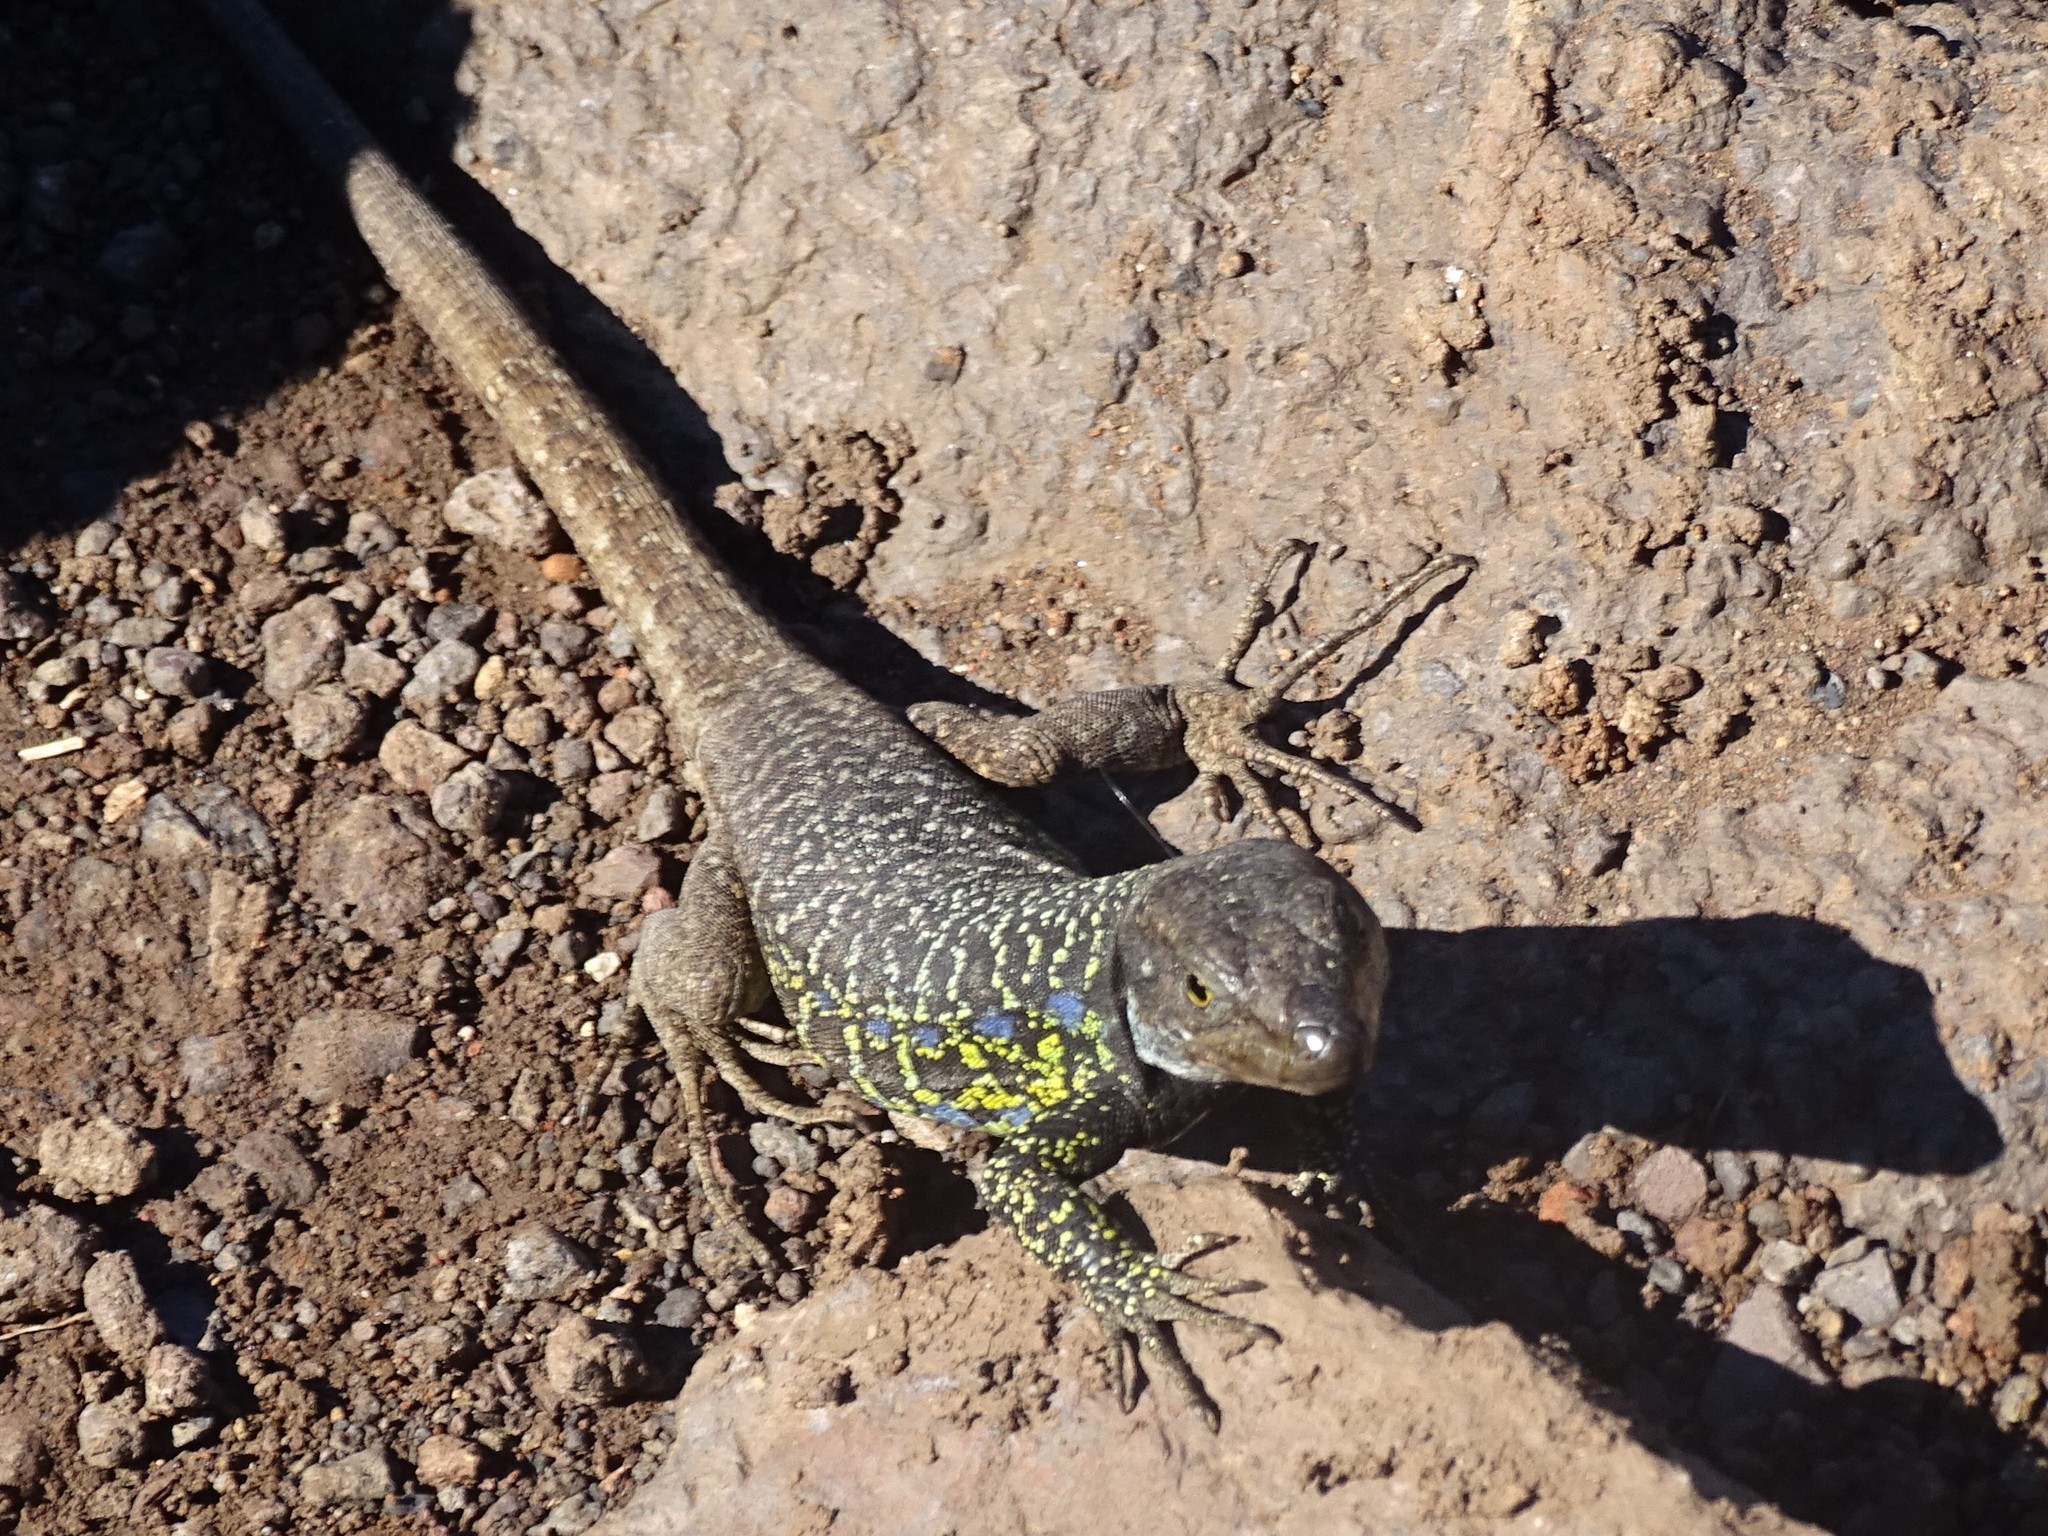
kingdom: Animalia
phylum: Chordata
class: Squamata
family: Lacertidae
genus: Gallotia
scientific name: Gallotia galloti
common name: Gallot's lizard
